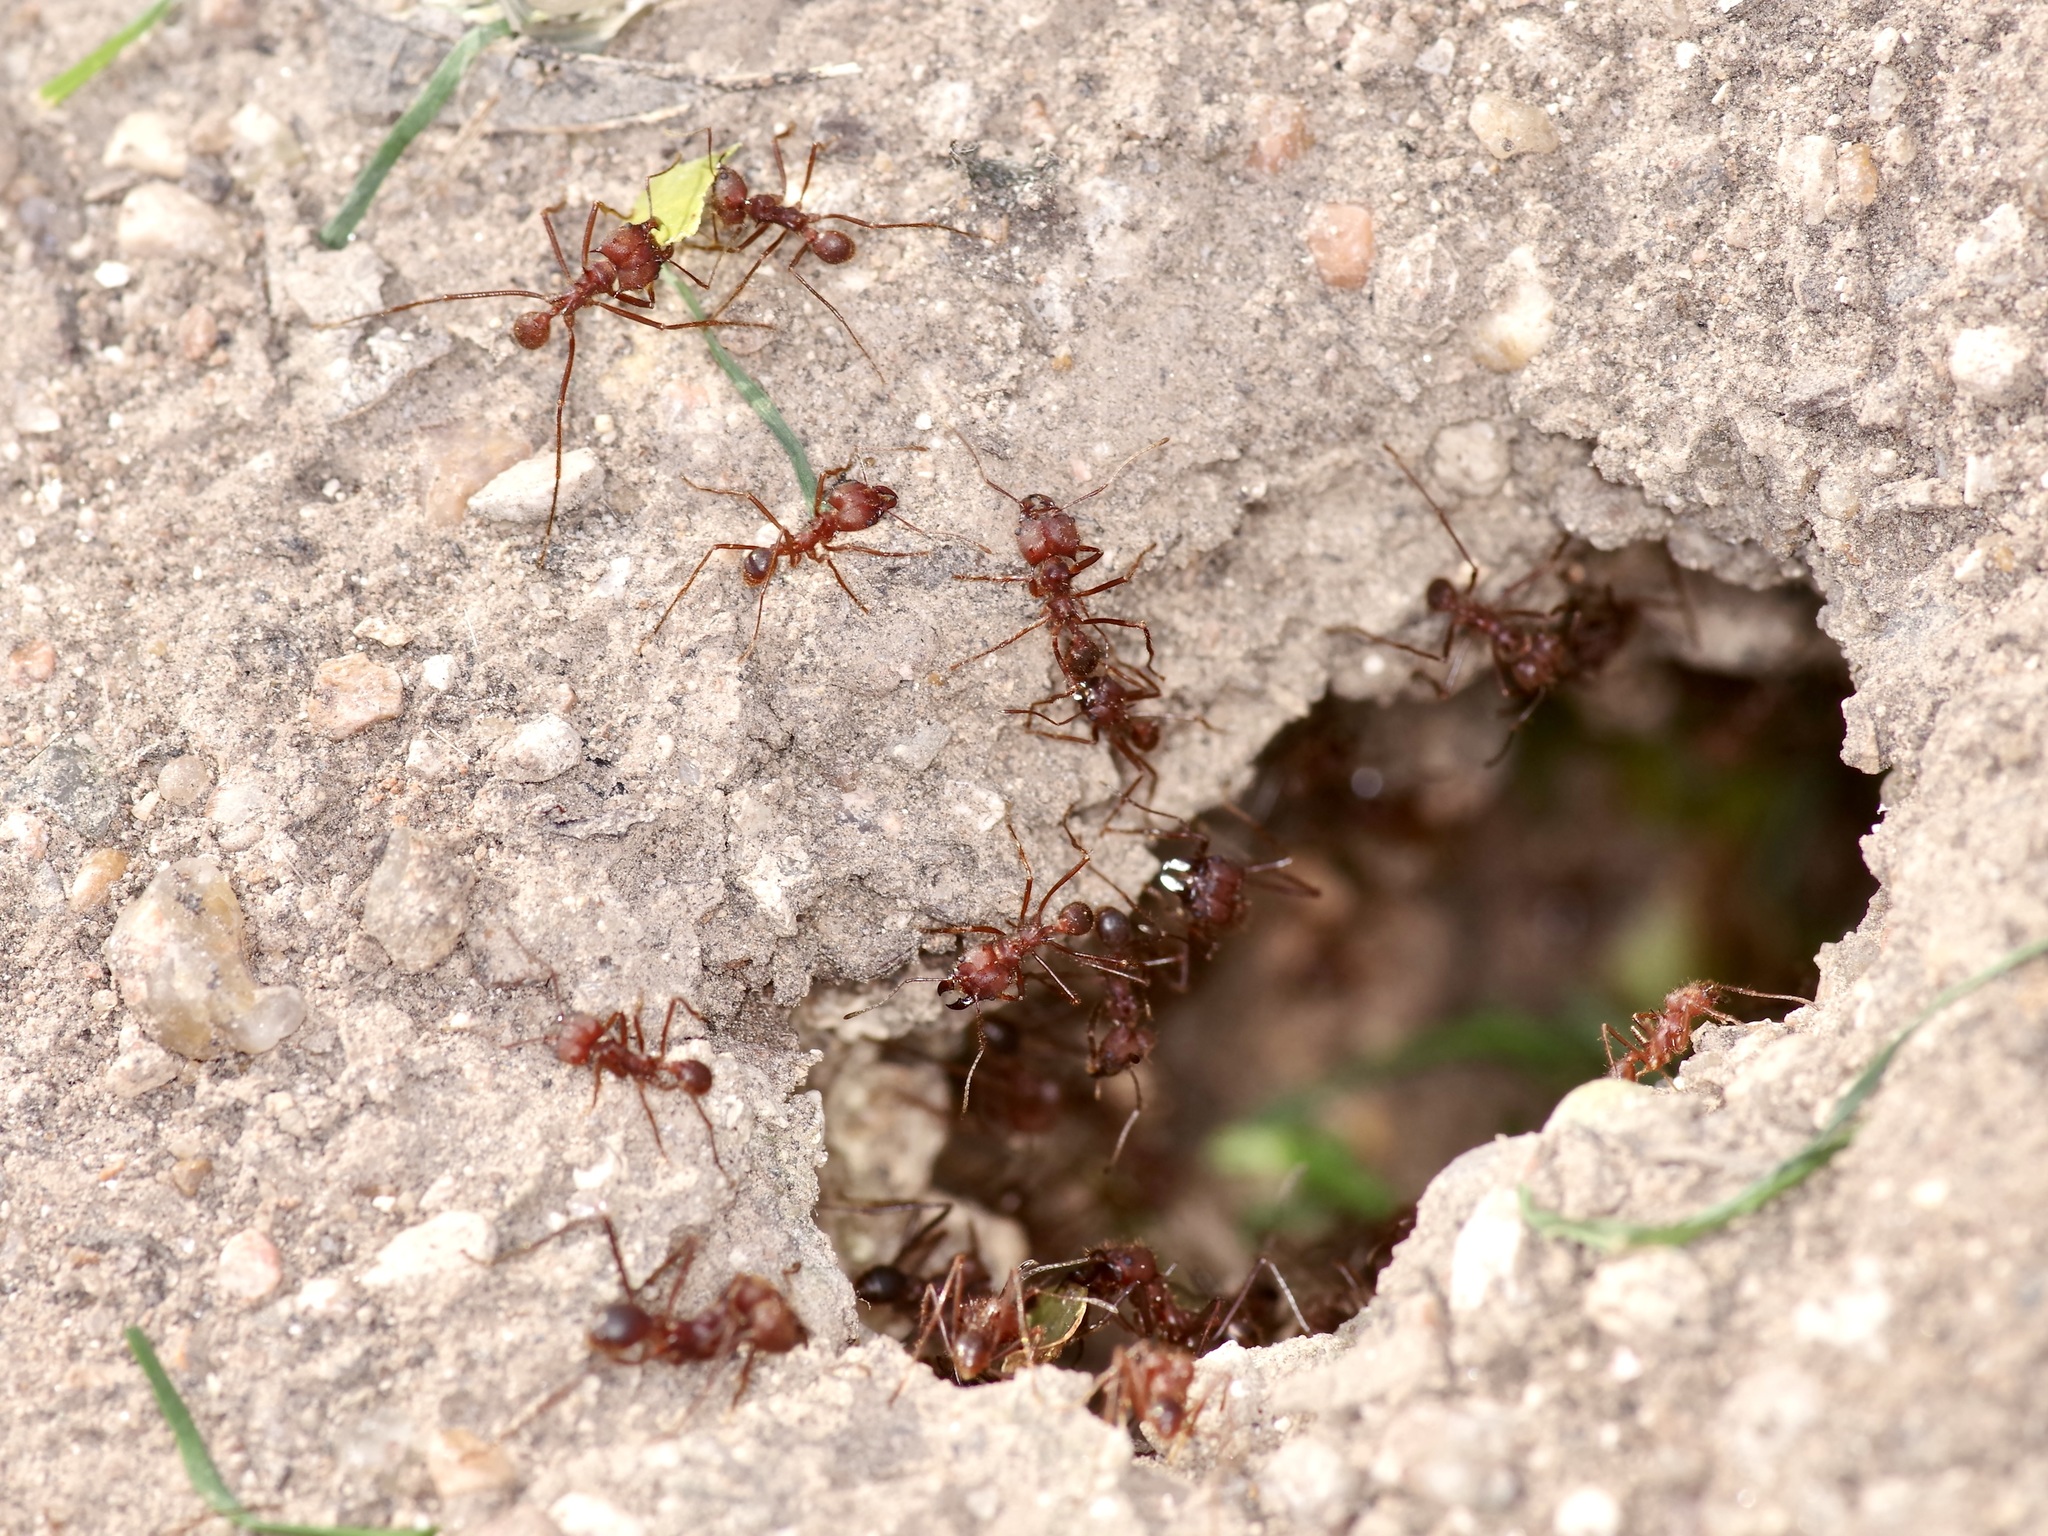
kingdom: Animalia
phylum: Arthropoda
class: Insecta
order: Hymenoptera
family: Formicidae
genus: Atta
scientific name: Atta texana
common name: Texas leafcutting ant
